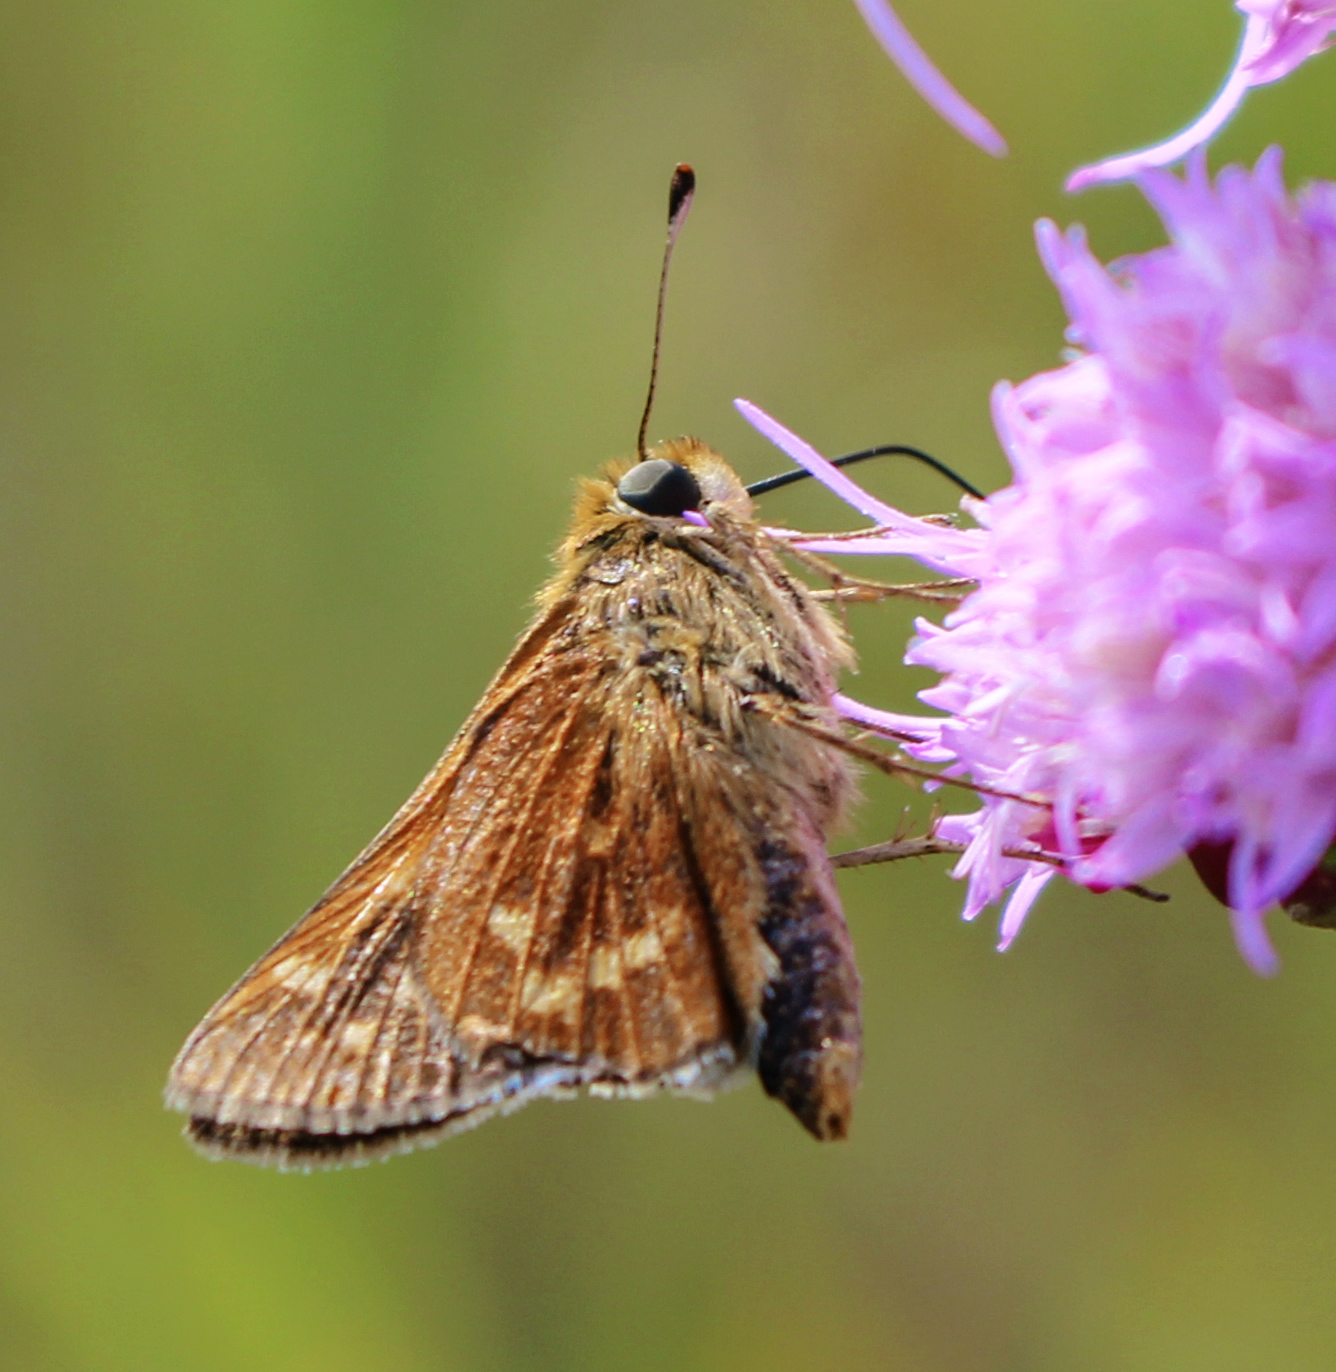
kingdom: Animalia
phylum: Arthropoda
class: Insecta
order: Lepidoptera
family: Hesperiidae
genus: Hesperia
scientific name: Hesperia leonardus
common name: Leonard's skipper
